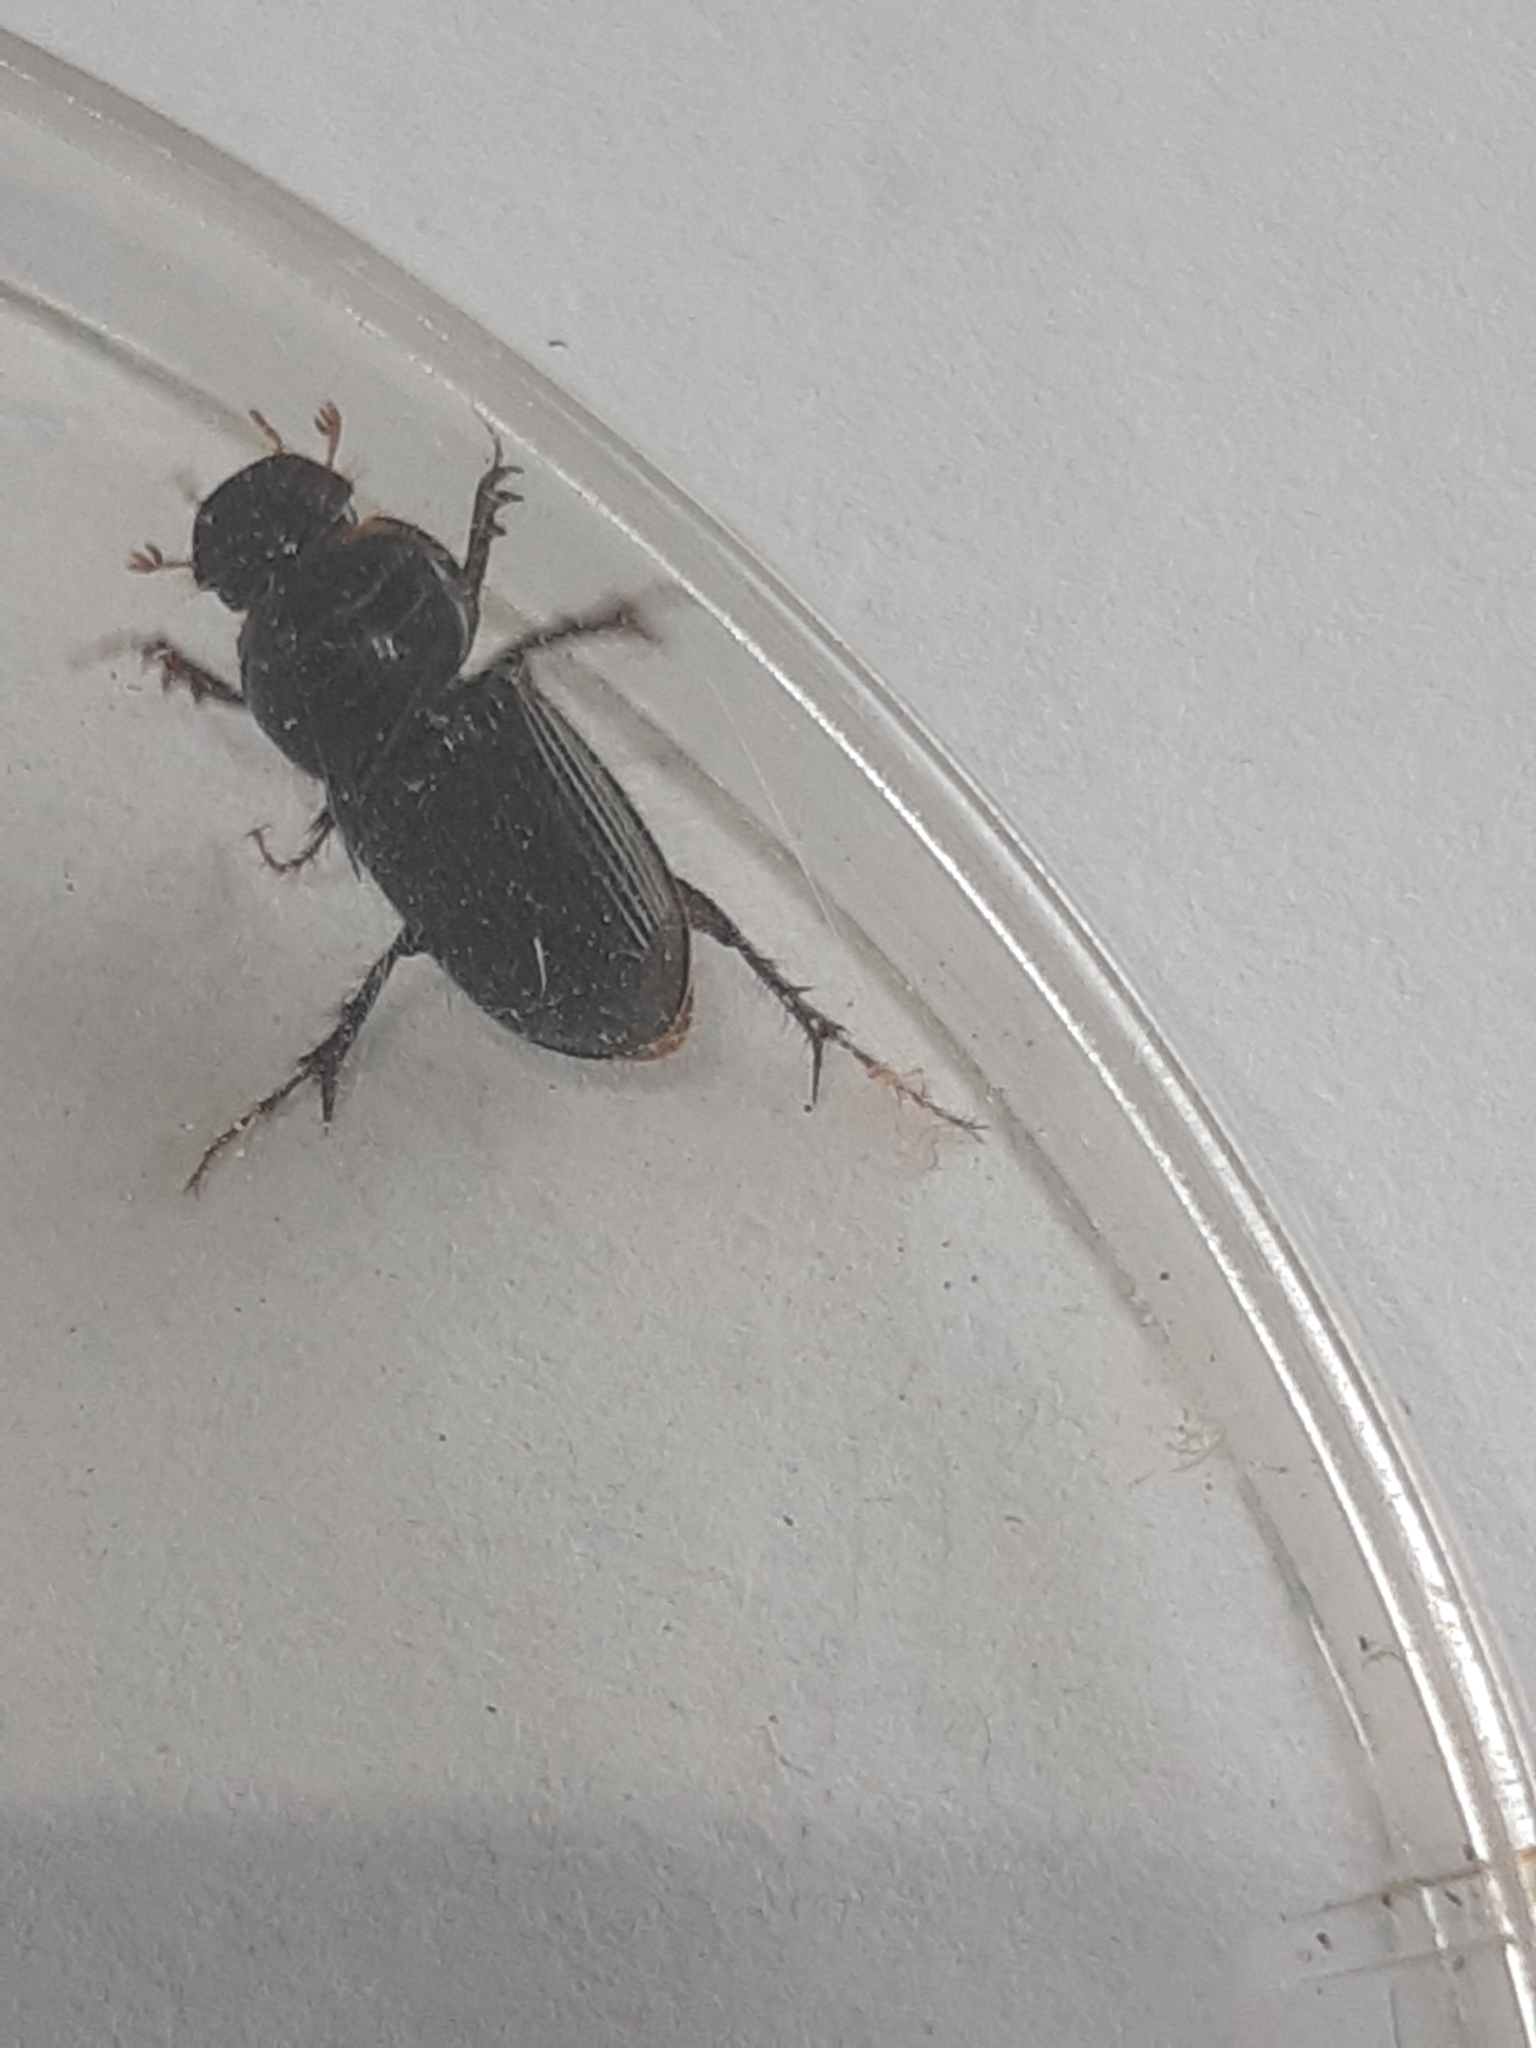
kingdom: Animalia
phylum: Arthropoda
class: Insecta
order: Coleoptera
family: Scarabaeidae
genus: Acrossidius
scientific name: Acrossidius tasmaniae
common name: Black-headed pasture cockchafer
